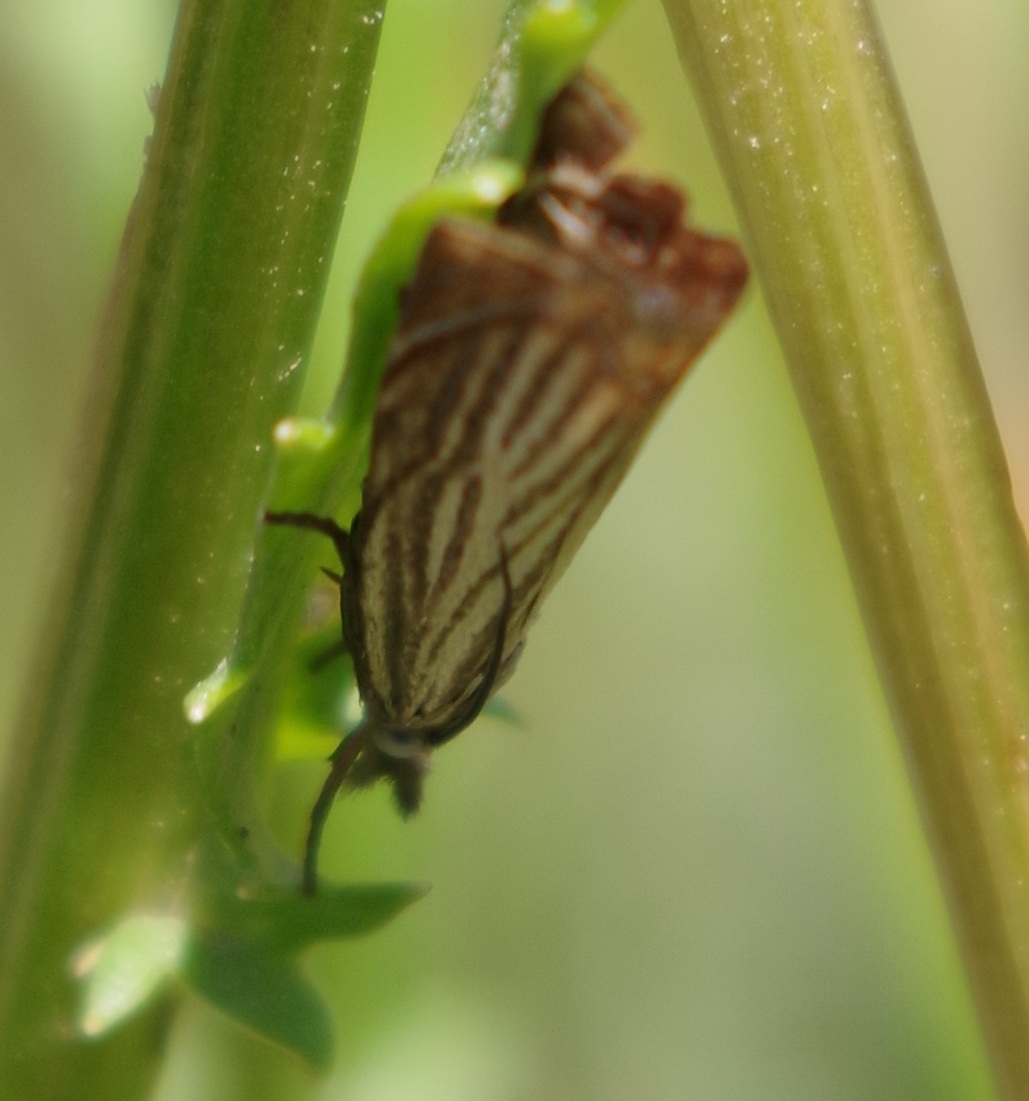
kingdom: Animalia
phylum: Arthropoda
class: Insecta
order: Lepidoptera
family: Crambidae
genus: Chrysoteuchia
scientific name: Chrysoteuchia culmella
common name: Garden grass-veneer
